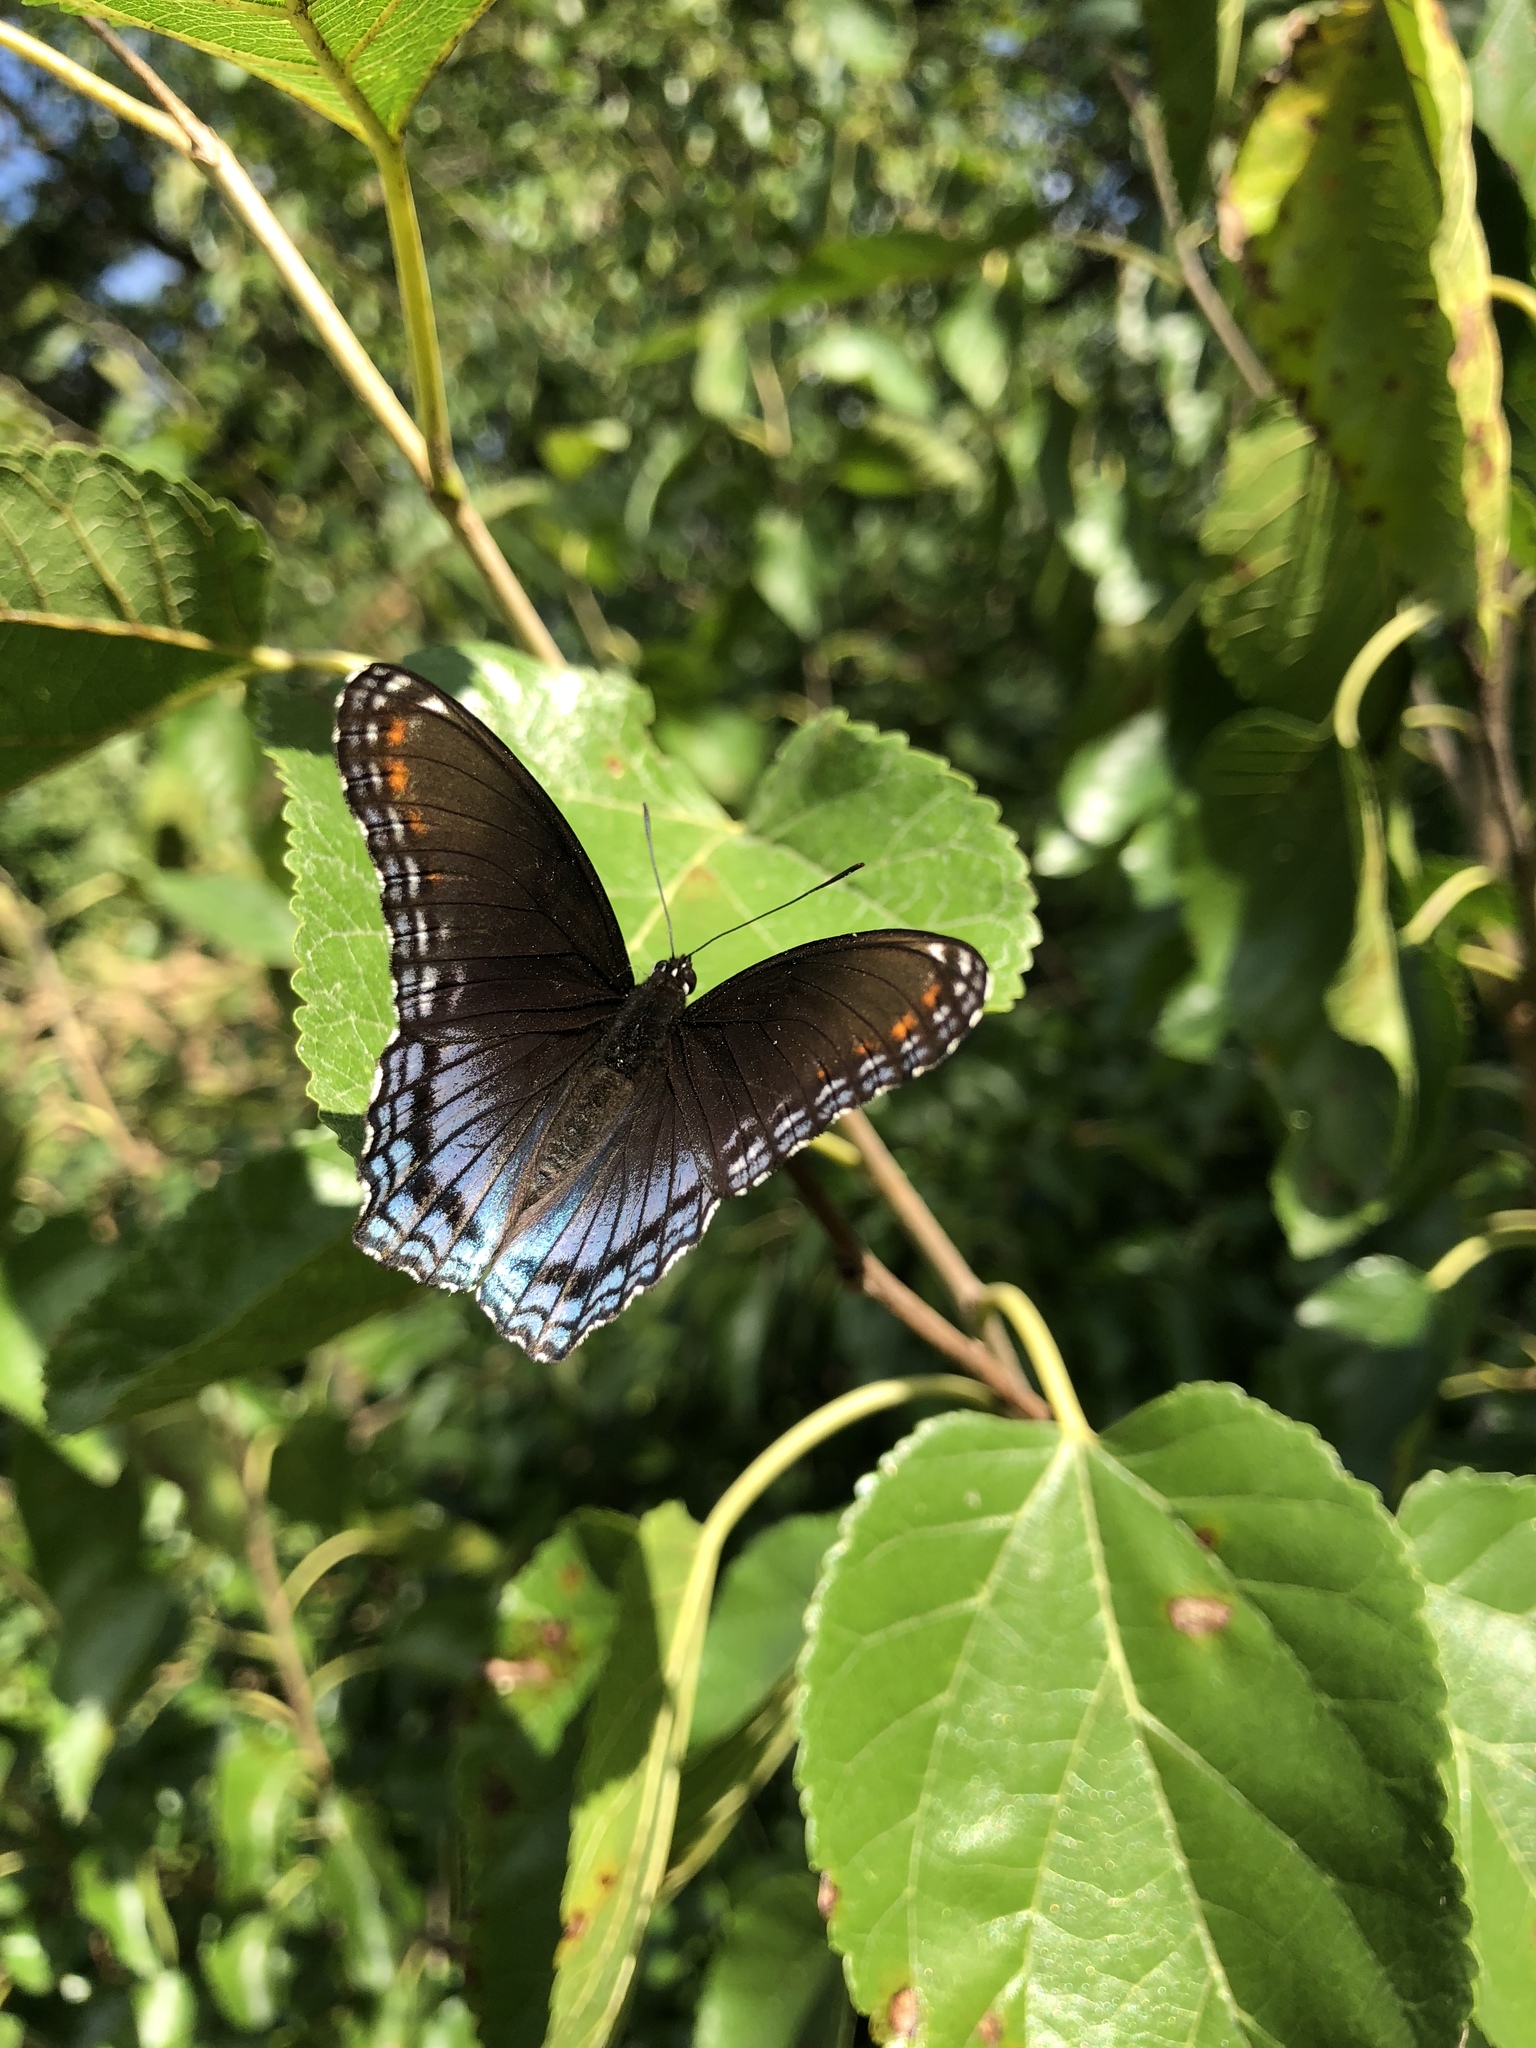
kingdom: Animalia
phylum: Arthropoda
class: Insecta
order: Lepidoptera
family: Nymphalidae
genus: Limenitis
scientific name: Limenitis arthemis
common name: Red-spotted admiral
